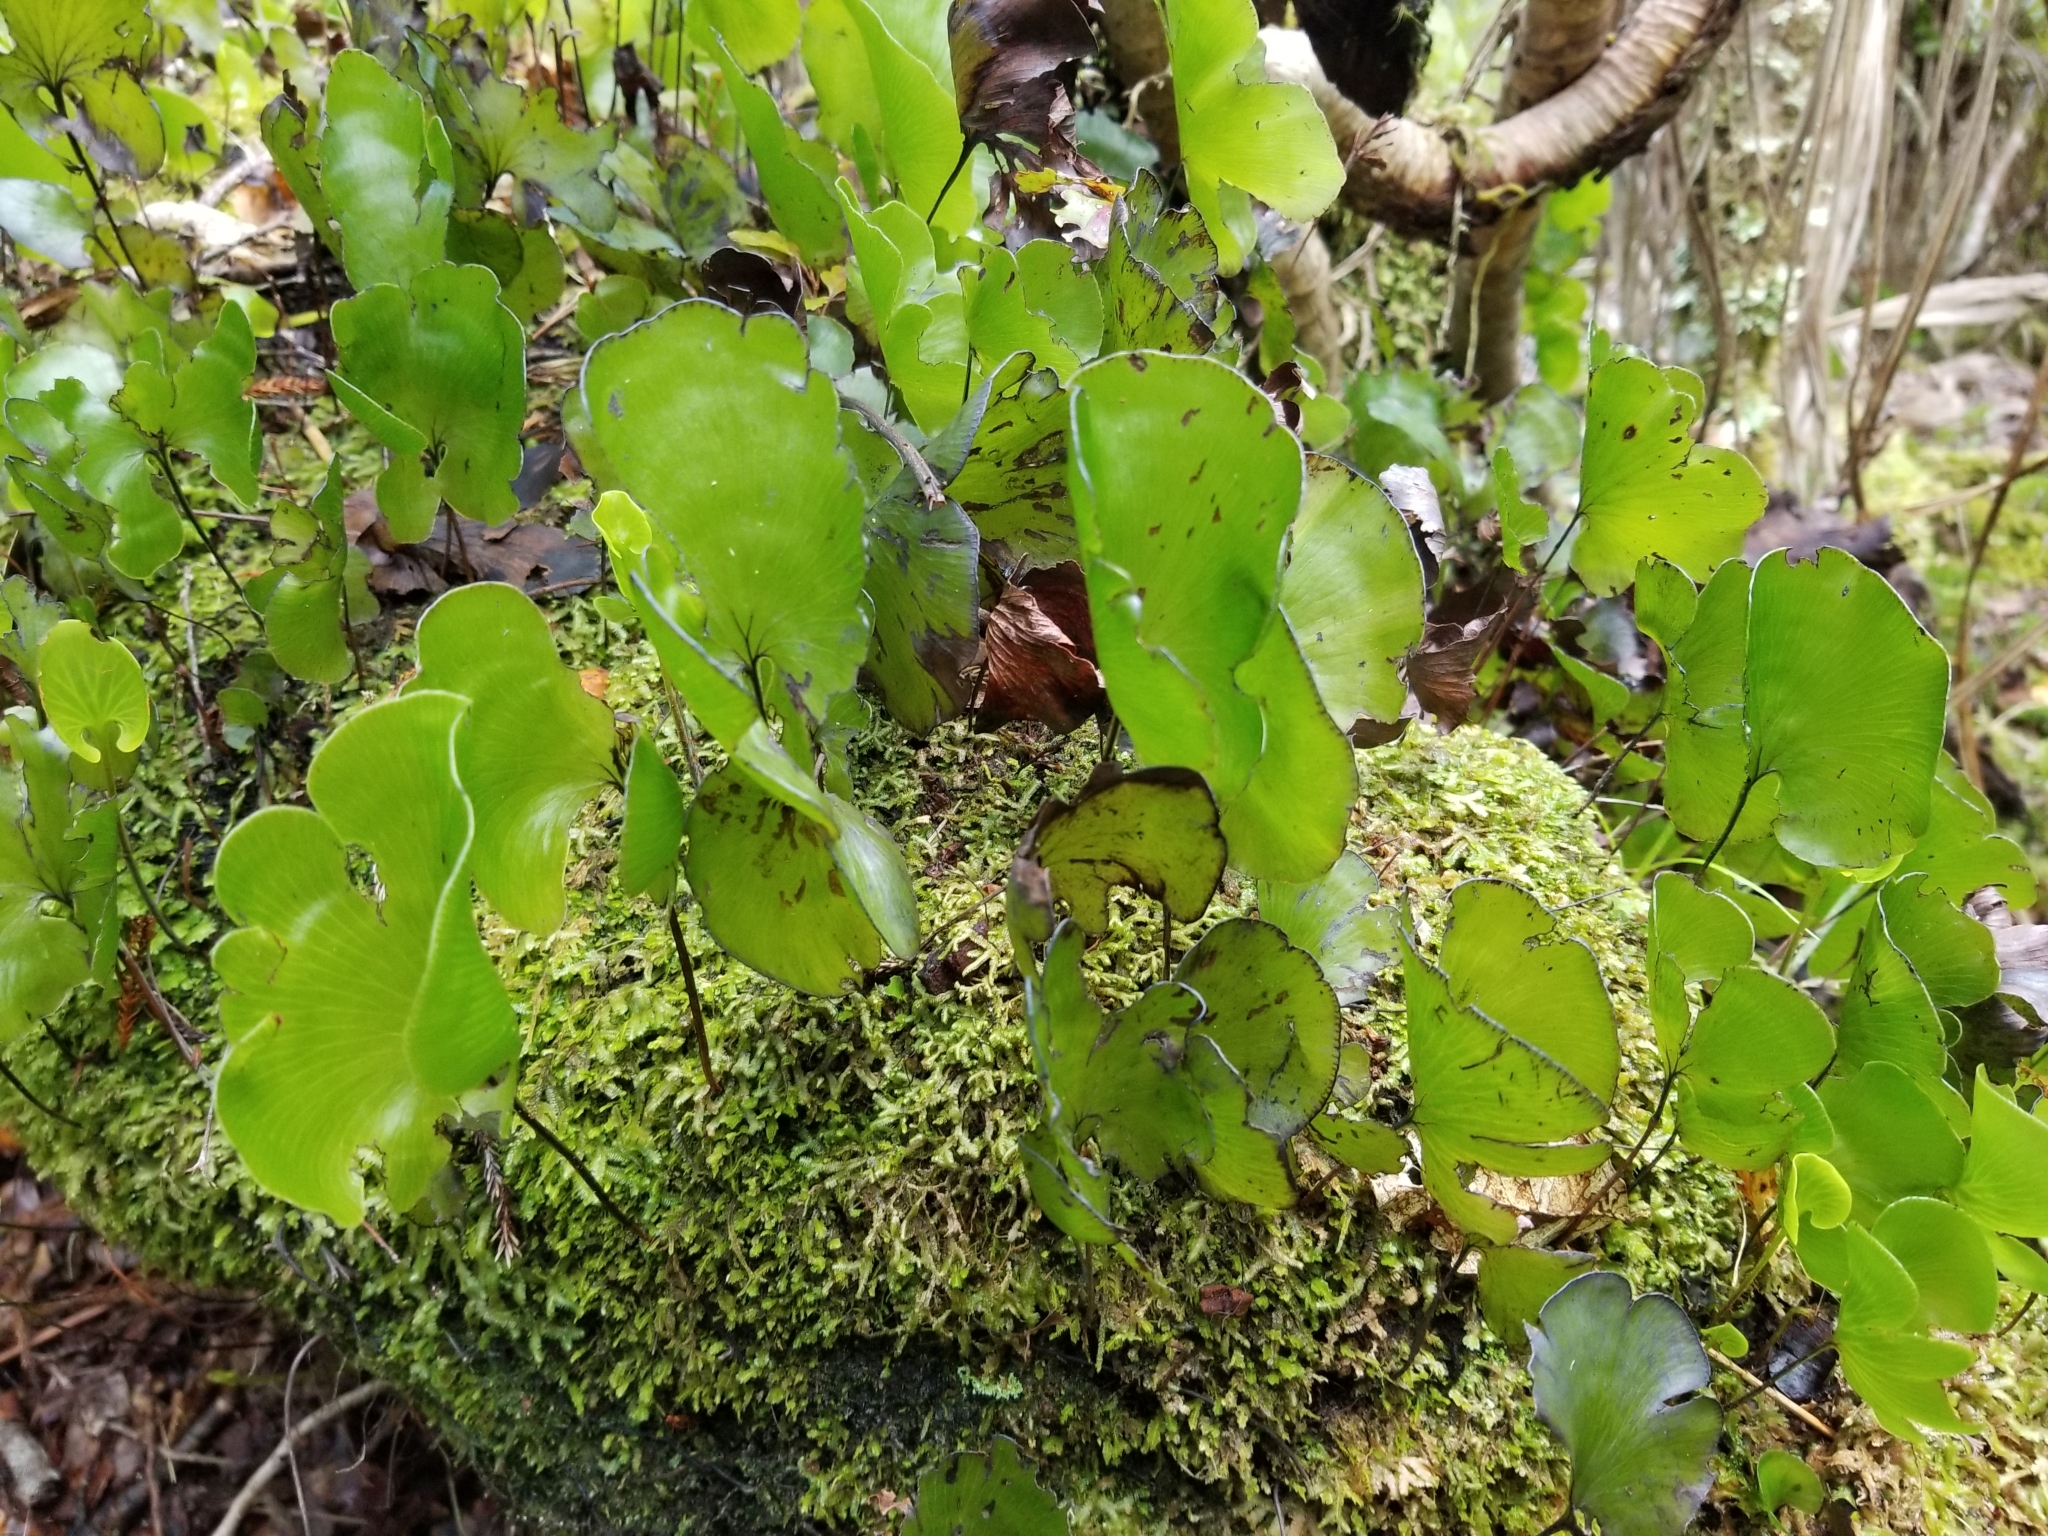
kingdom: Plantae
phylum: Tracheophyta
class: Polypodiopsida
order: Hymenophyllales
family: Hymenophyllaceae
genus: Hymenophyllum
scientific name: Hymenophyllum nephrophyllum
